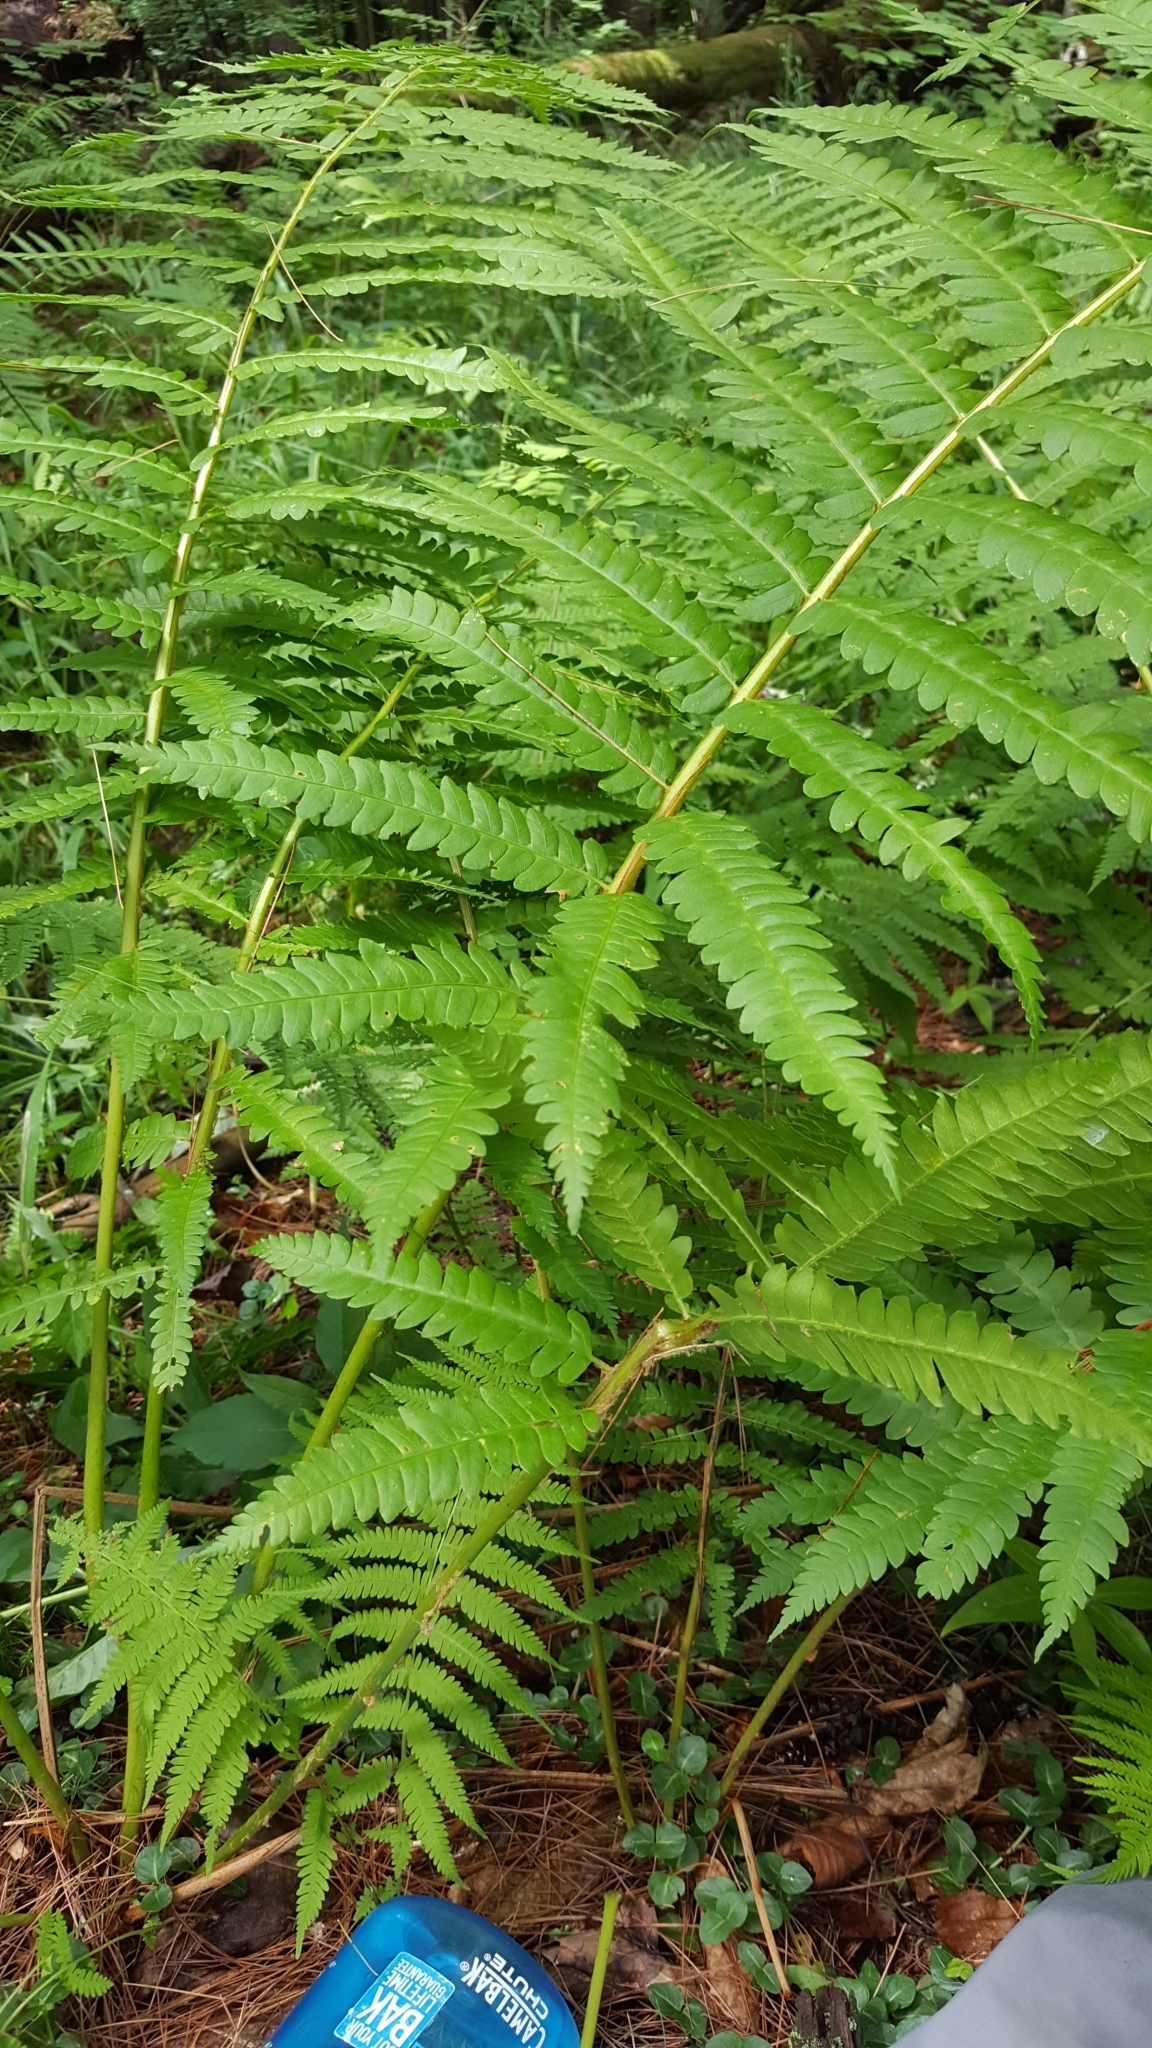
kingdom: Plantae
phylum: Tracheophyta
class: Polypodiopsida
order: Osmundales
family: Osmundaceae
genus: Osmundastrum
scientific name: Osmundastrum cinnamomeum
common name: Cinnamon fern
